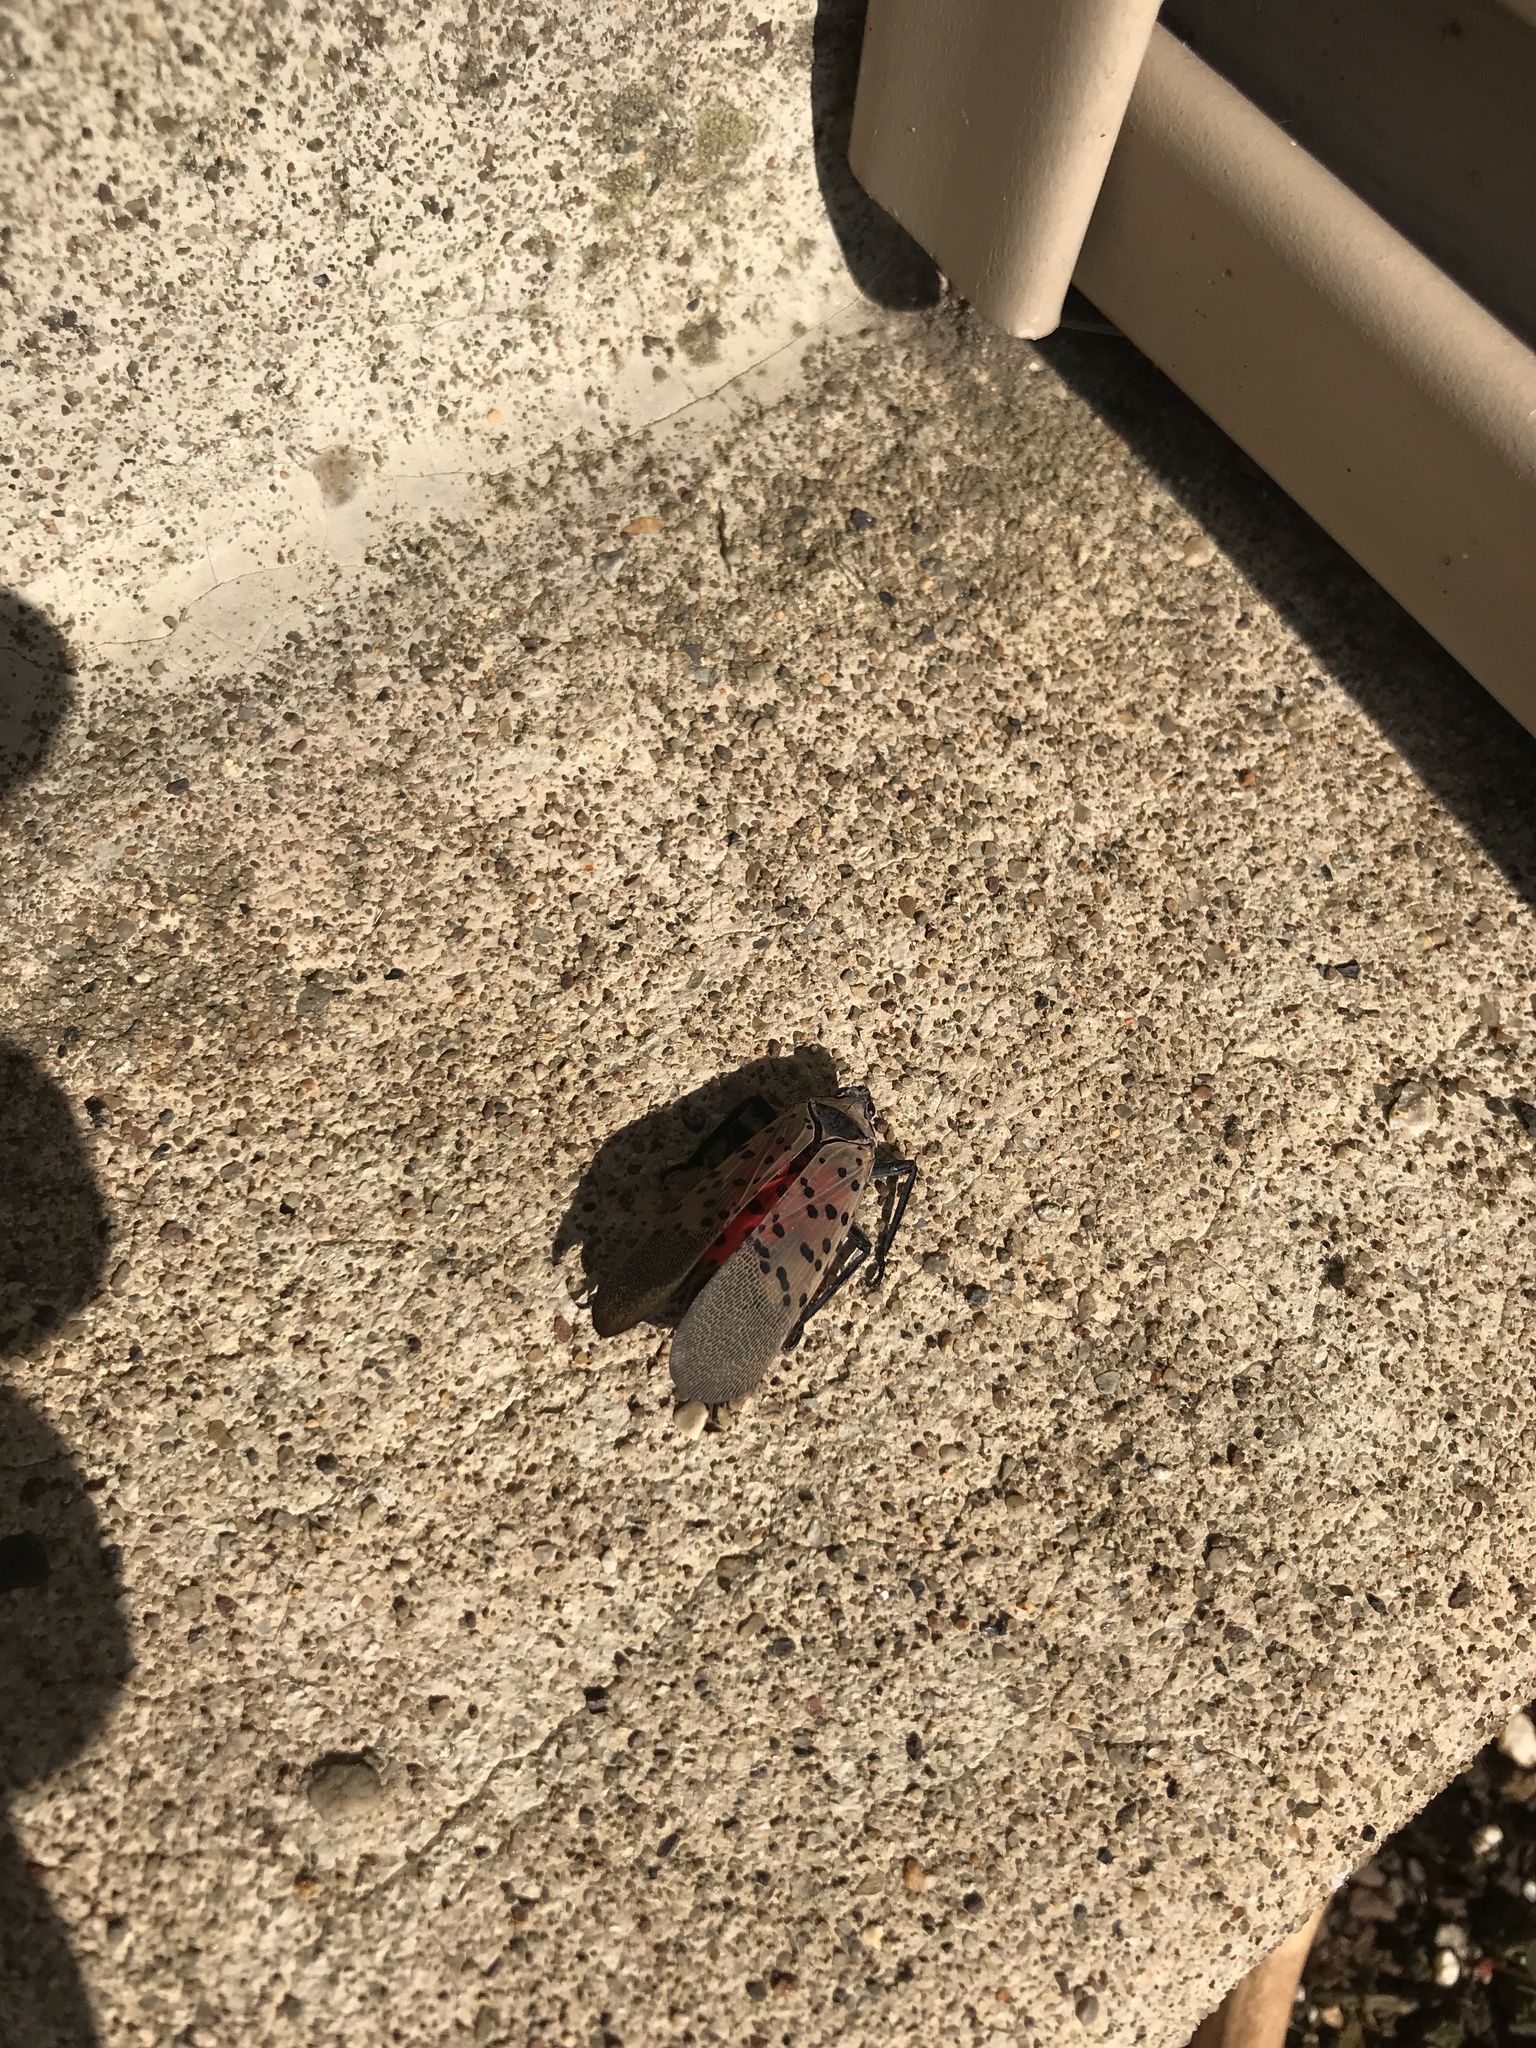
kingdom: Animalia
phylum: Arthropoda
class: Insecta
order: Hemiptera
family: Fulgoridae
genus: Lycorma
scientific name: Lycorma delicatula
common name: Spotted lanternfly
